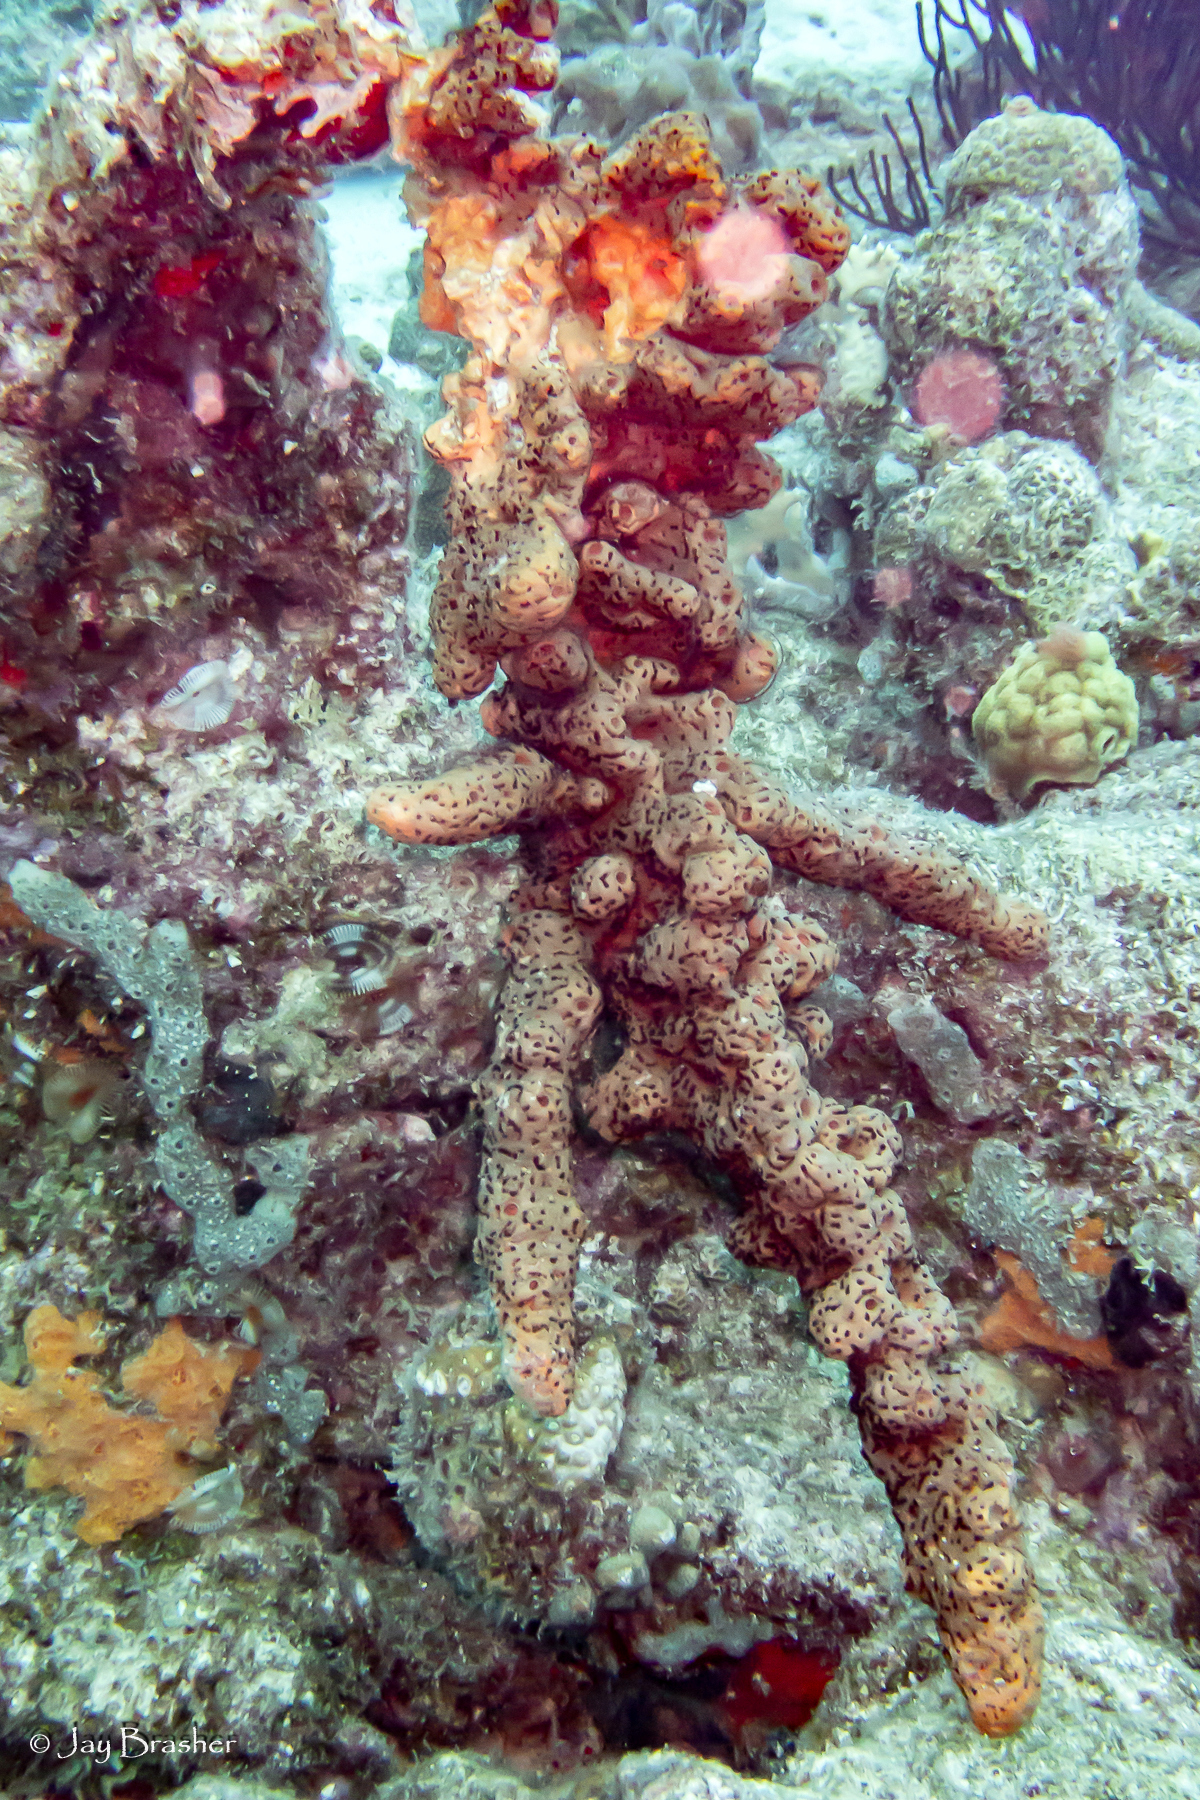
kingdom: Animalia
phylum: Porifera
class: Demospongiae
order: Agelasida
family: Agelasidae
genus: Agelas
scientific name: Agelas conifera
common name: Brown tube sponge
